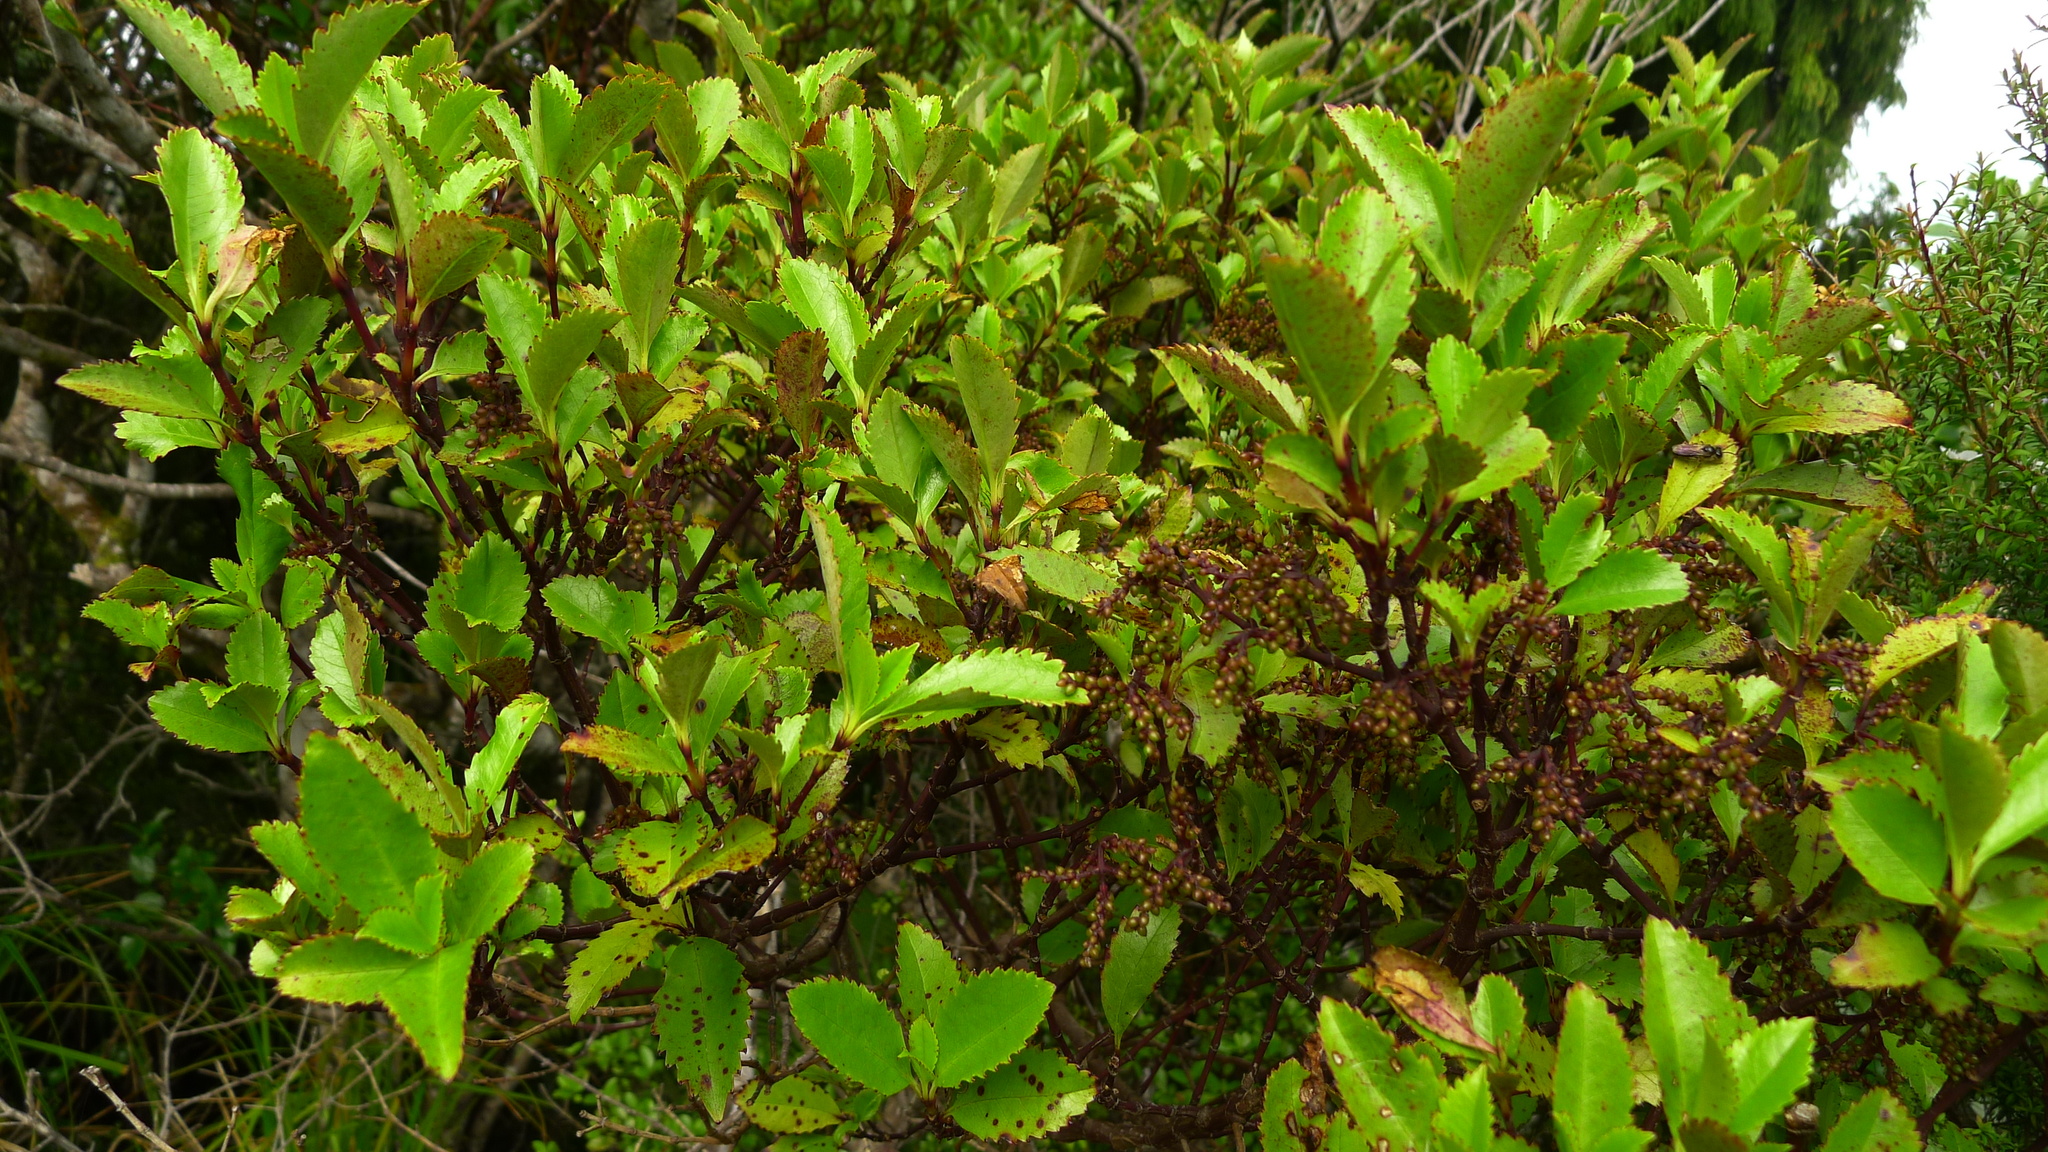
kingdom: Plantae
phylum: Tracheophyta
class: Magnoliopsida
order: Chloranthales
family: Chloranthaceae
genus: Ascarina
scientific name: Ascarina lucida
